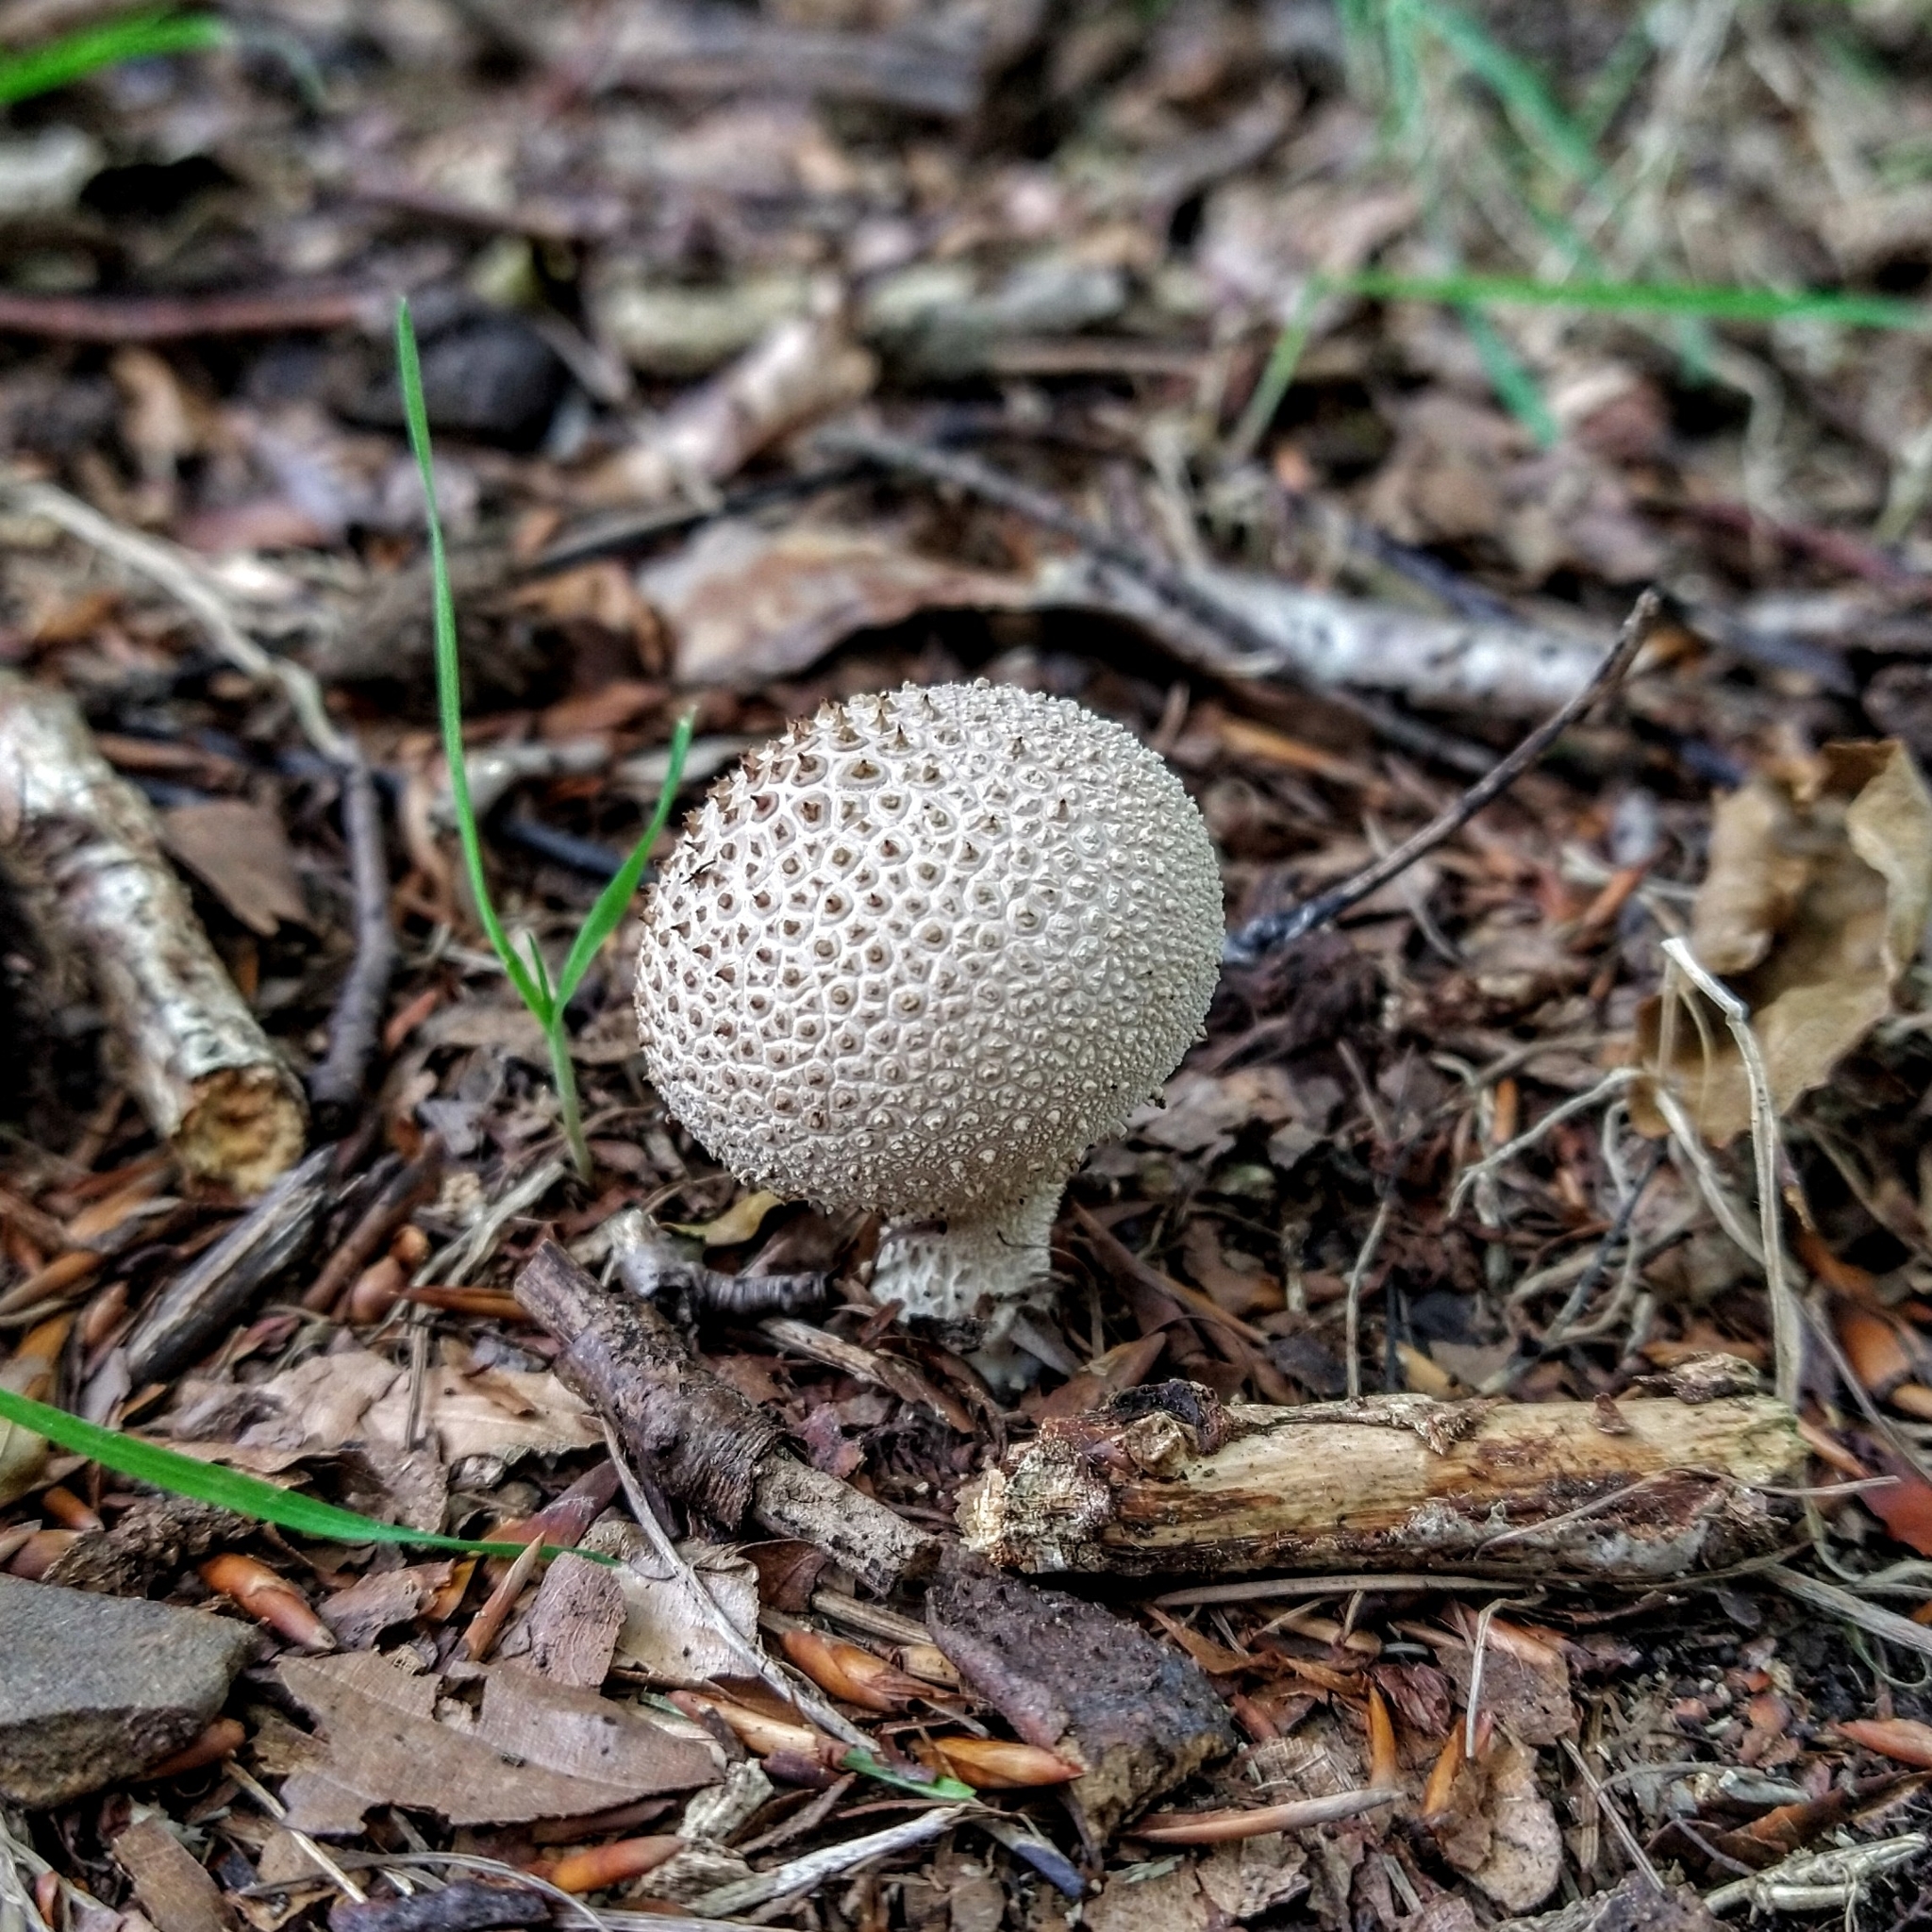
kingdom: Fungi
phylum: Basidiomycota
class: Agaricomycetes
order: Agaricales
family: Lycoperdaceae
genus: Lycoperdon
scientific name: Lycoperdon perlatum
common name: Common puffball
